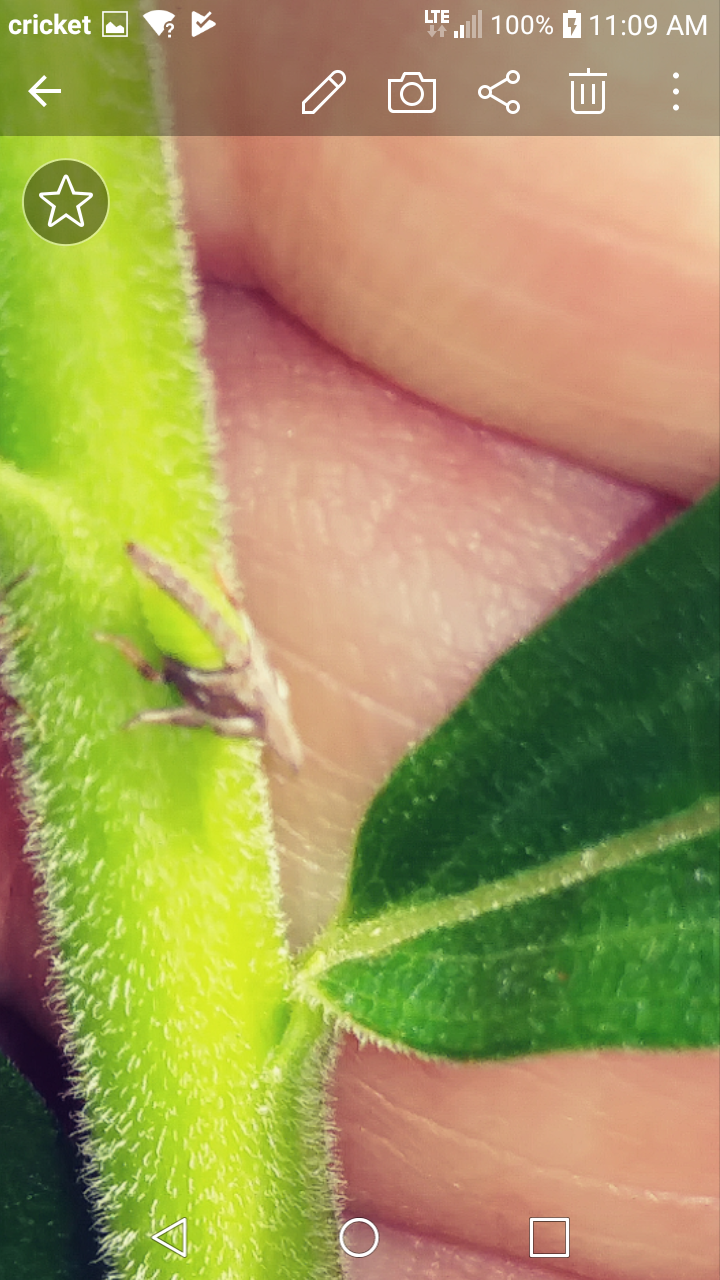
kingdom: Animalia
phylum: Arthropoda
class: Insecta
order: Hemiptera
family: Membracidae
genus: Enchenopa
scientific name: Enchenopa latipes
